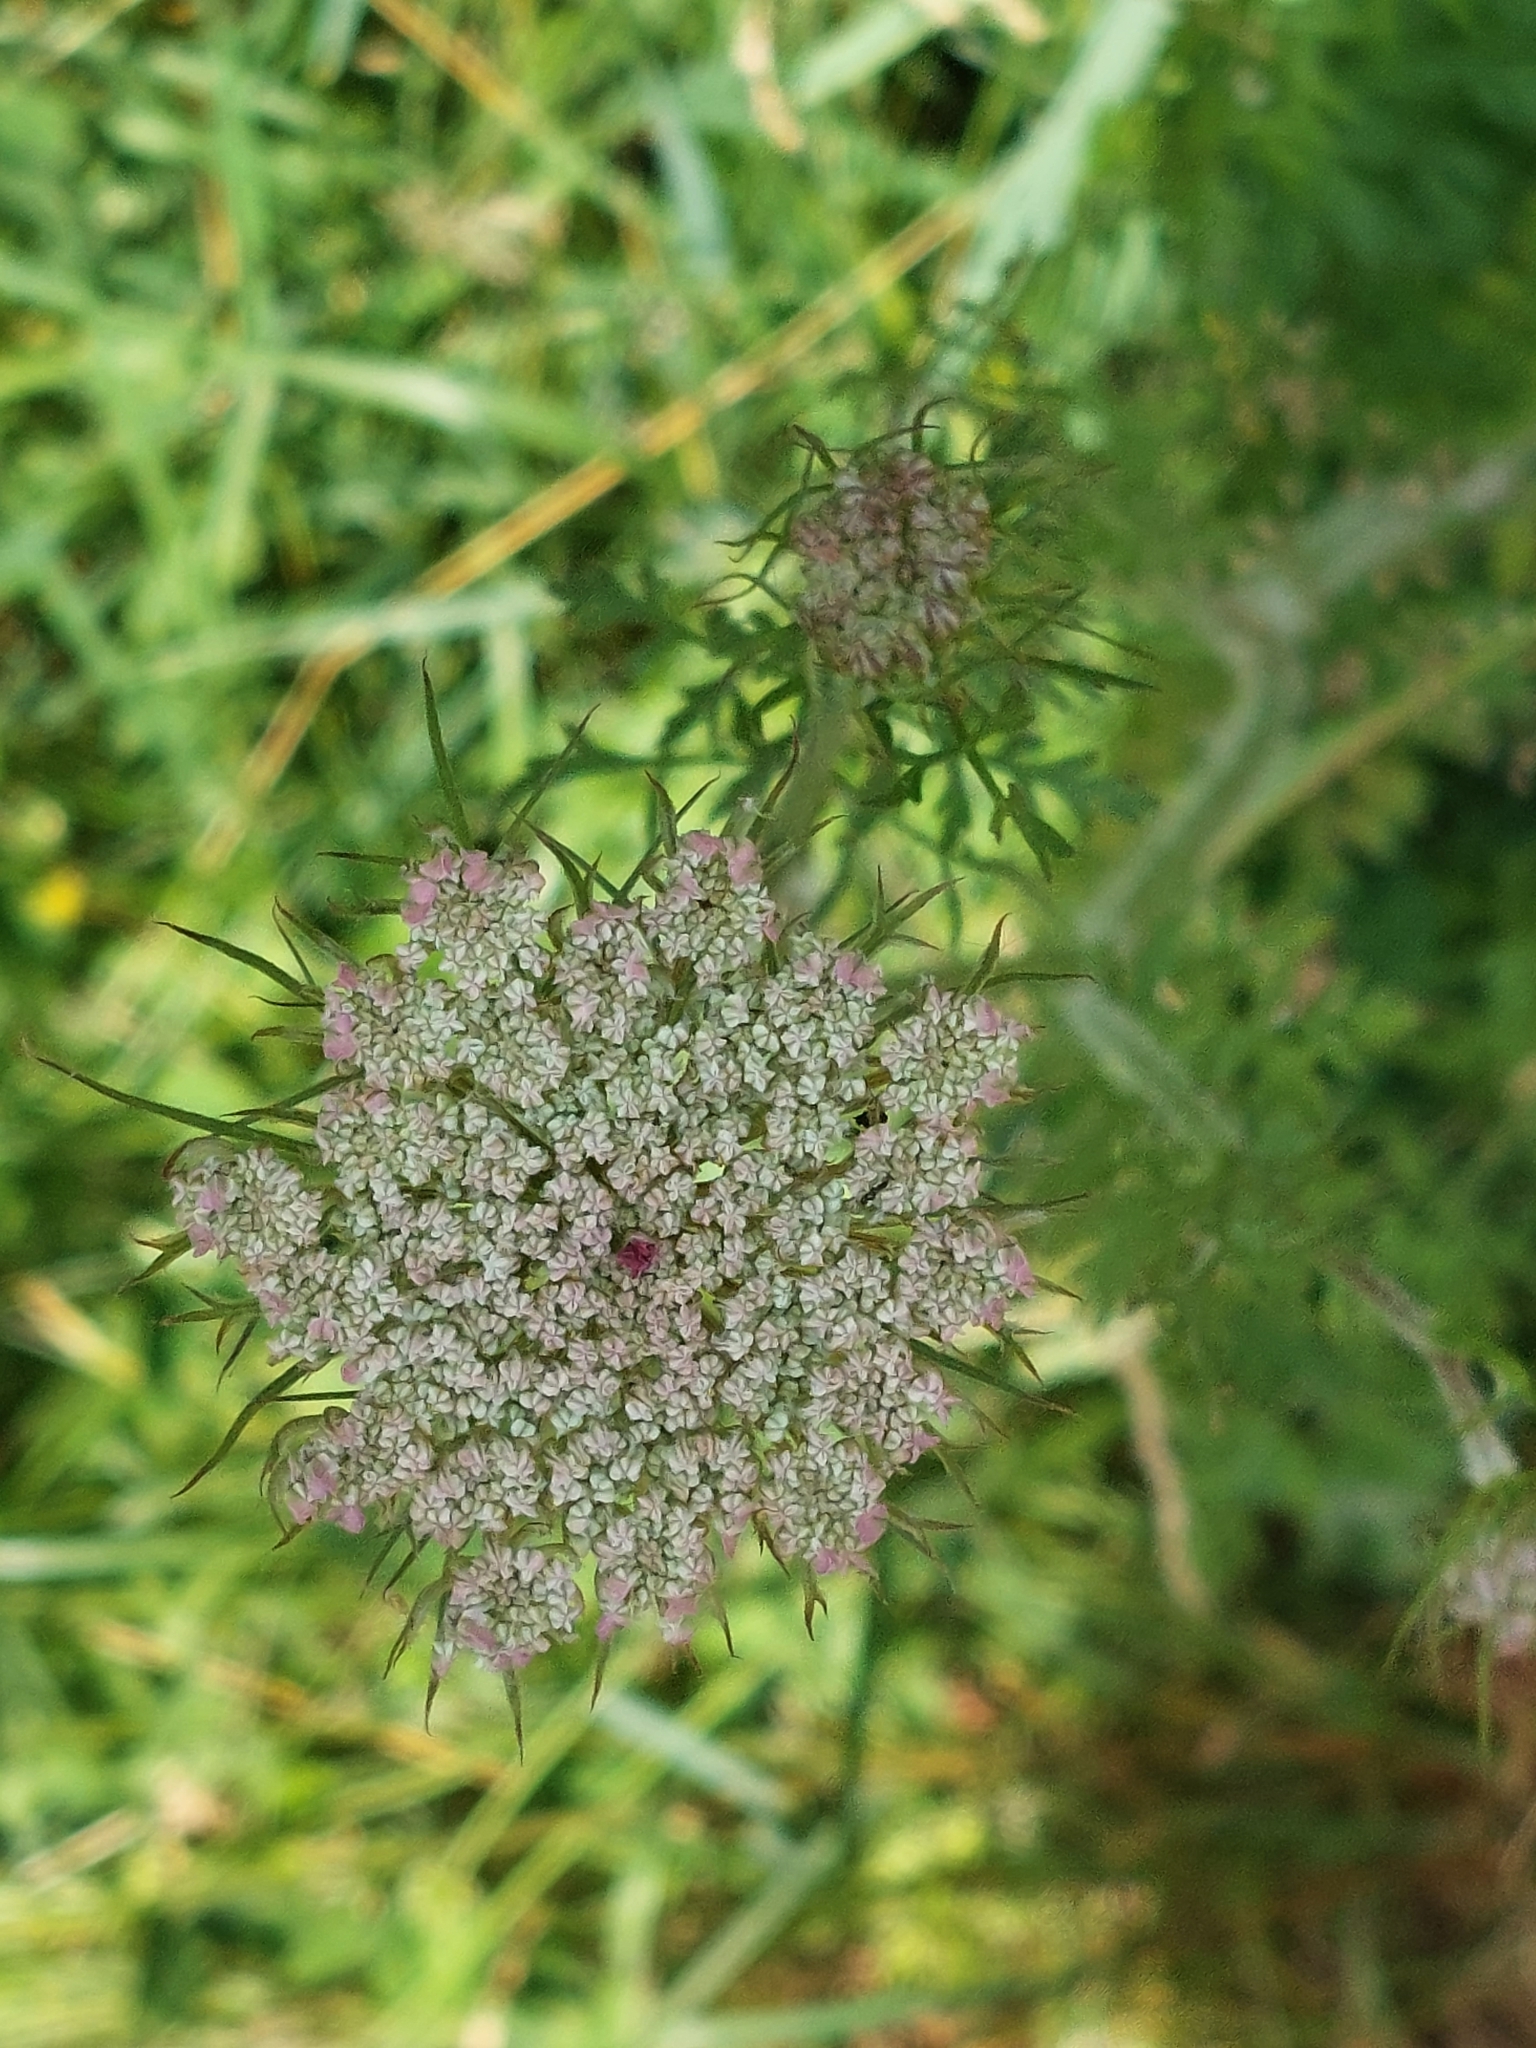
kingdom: Plantae
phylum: Tracheophyta
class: Magnoliopsida
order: Apiales
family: Apiaceae
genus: Daucus
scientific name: Daucus carota
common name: Wild carrot
